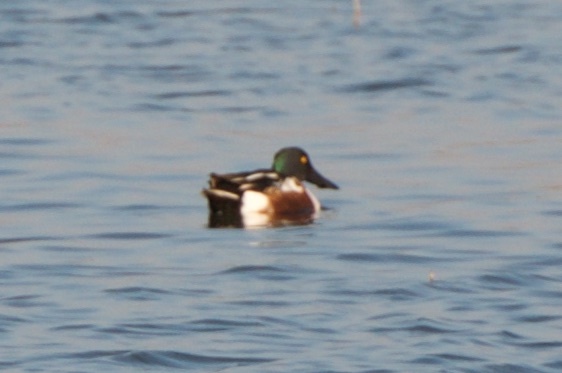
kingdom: Animalia
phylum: Chordata
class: Aves
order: Anseriformes
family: Anatidae
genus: Spatula
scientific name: Spatula clypeata
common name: Northern shoveler
